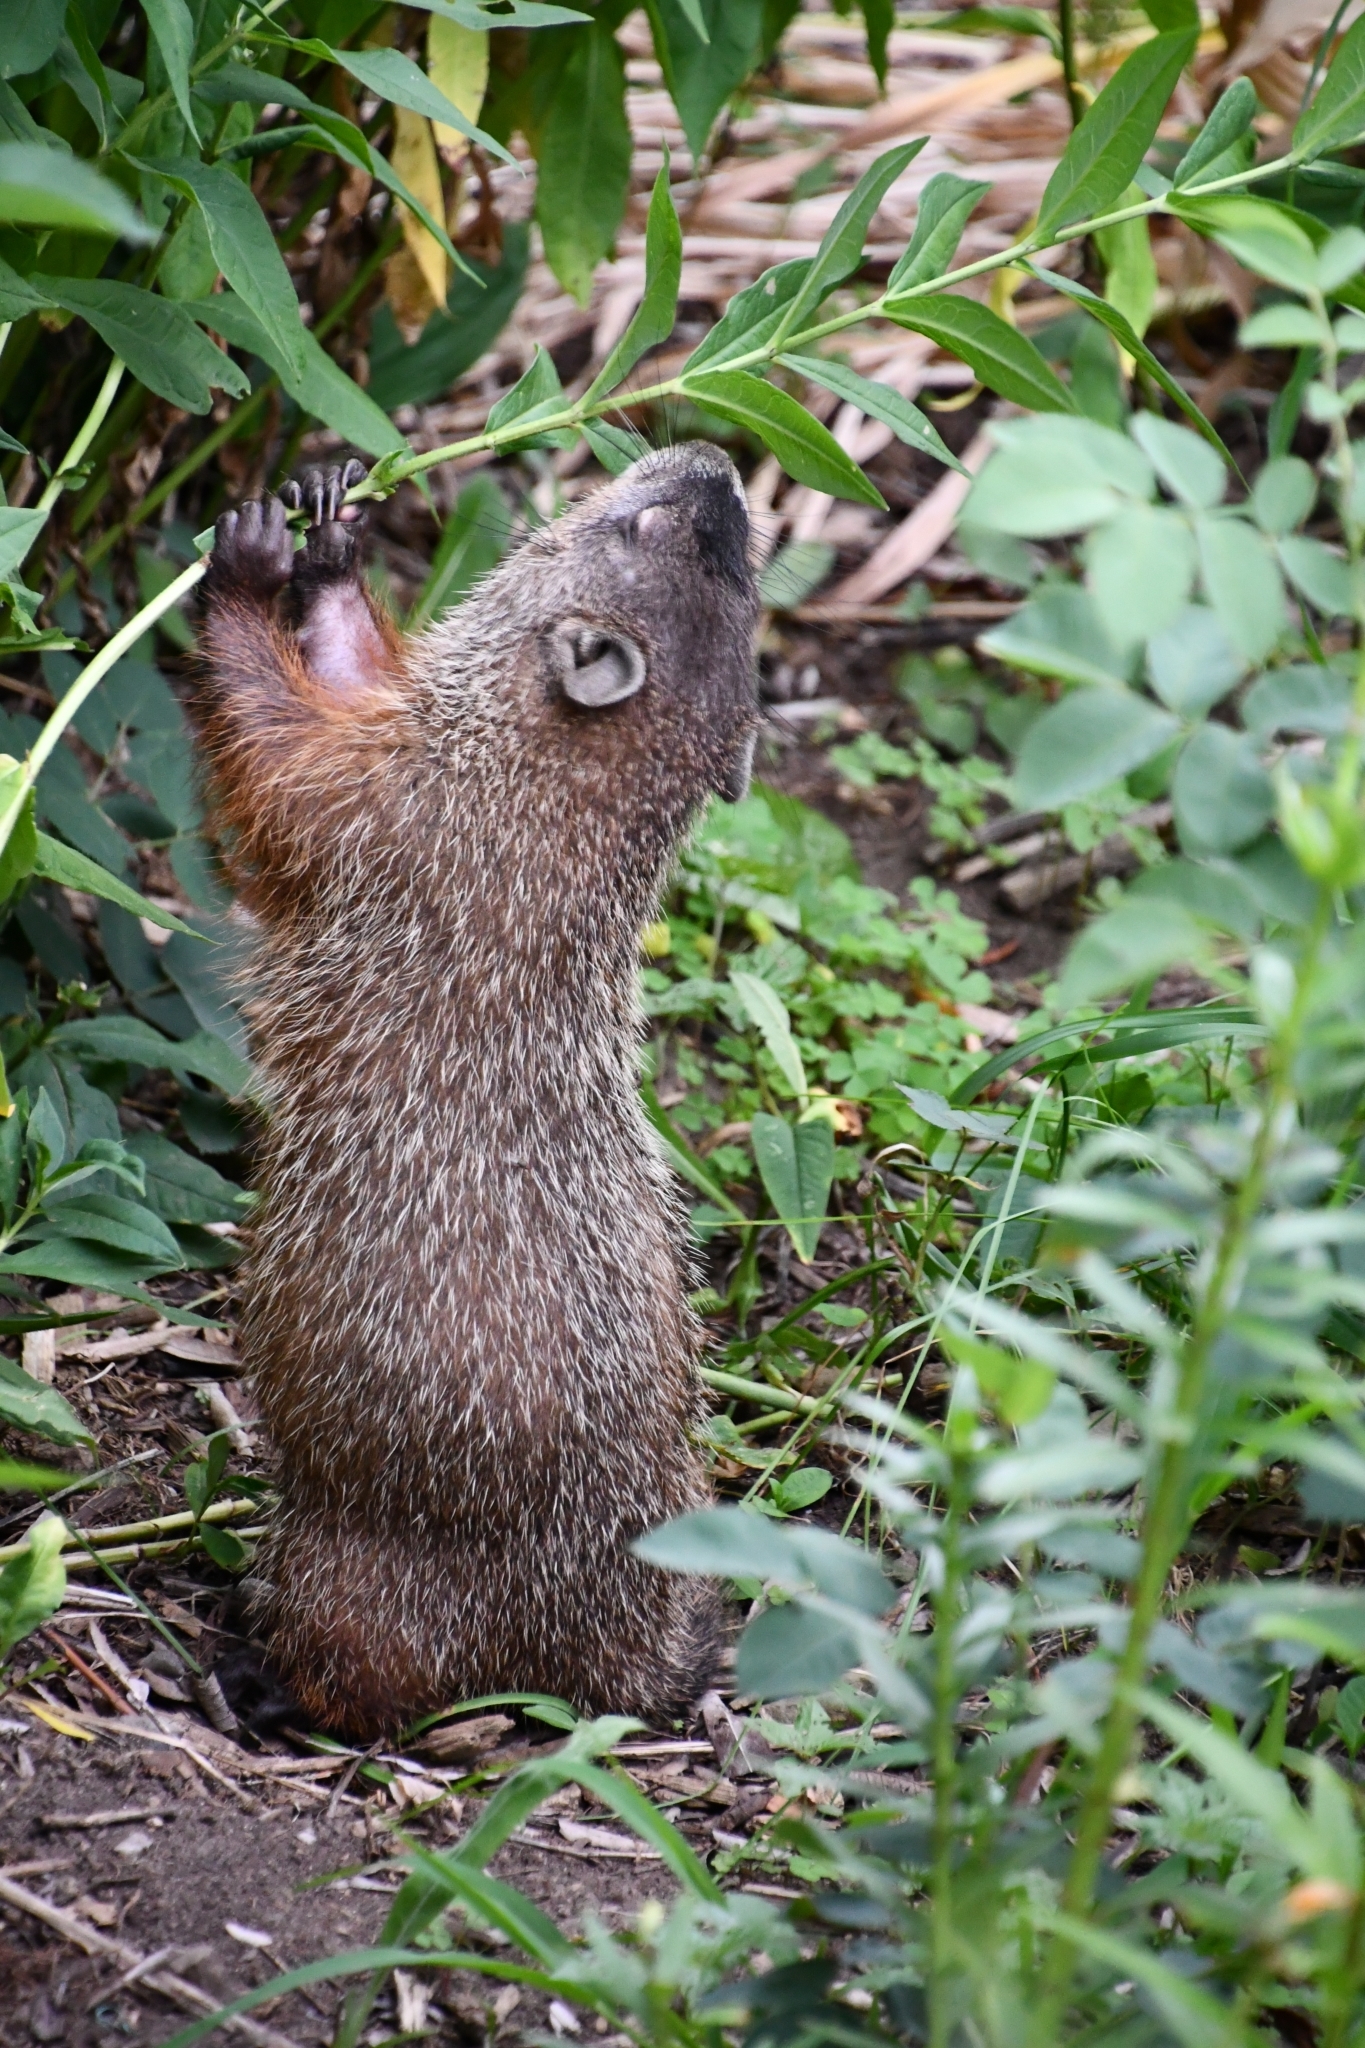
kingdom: Animalia
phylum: Chordata
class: Mammalia
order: Rodentia
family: Sciuridae
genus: Marmota
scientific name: Marmota monax
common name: Groundhog
